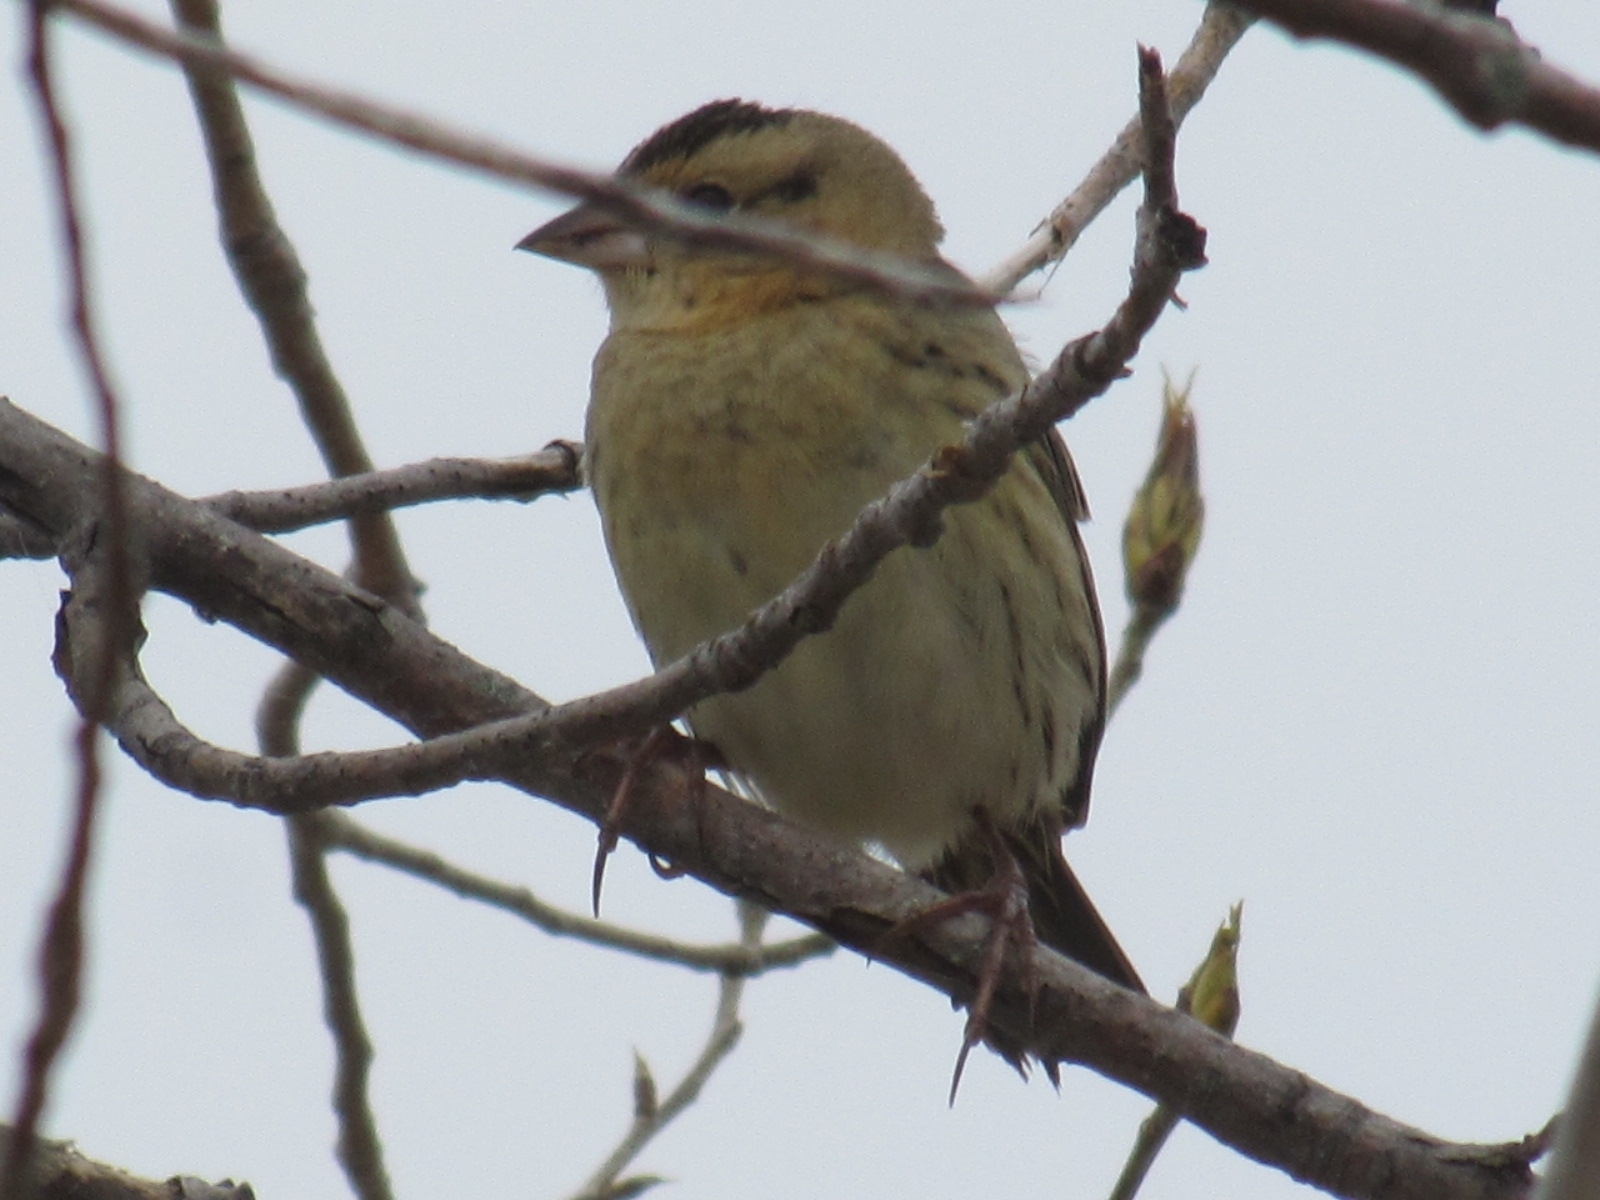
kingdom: Animalia
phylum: Chordata
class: Aves
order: Passeriformes
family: Icteridae
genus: Dolichonyx
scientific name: Dolichonyx oryzivorus
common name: Bobolink
